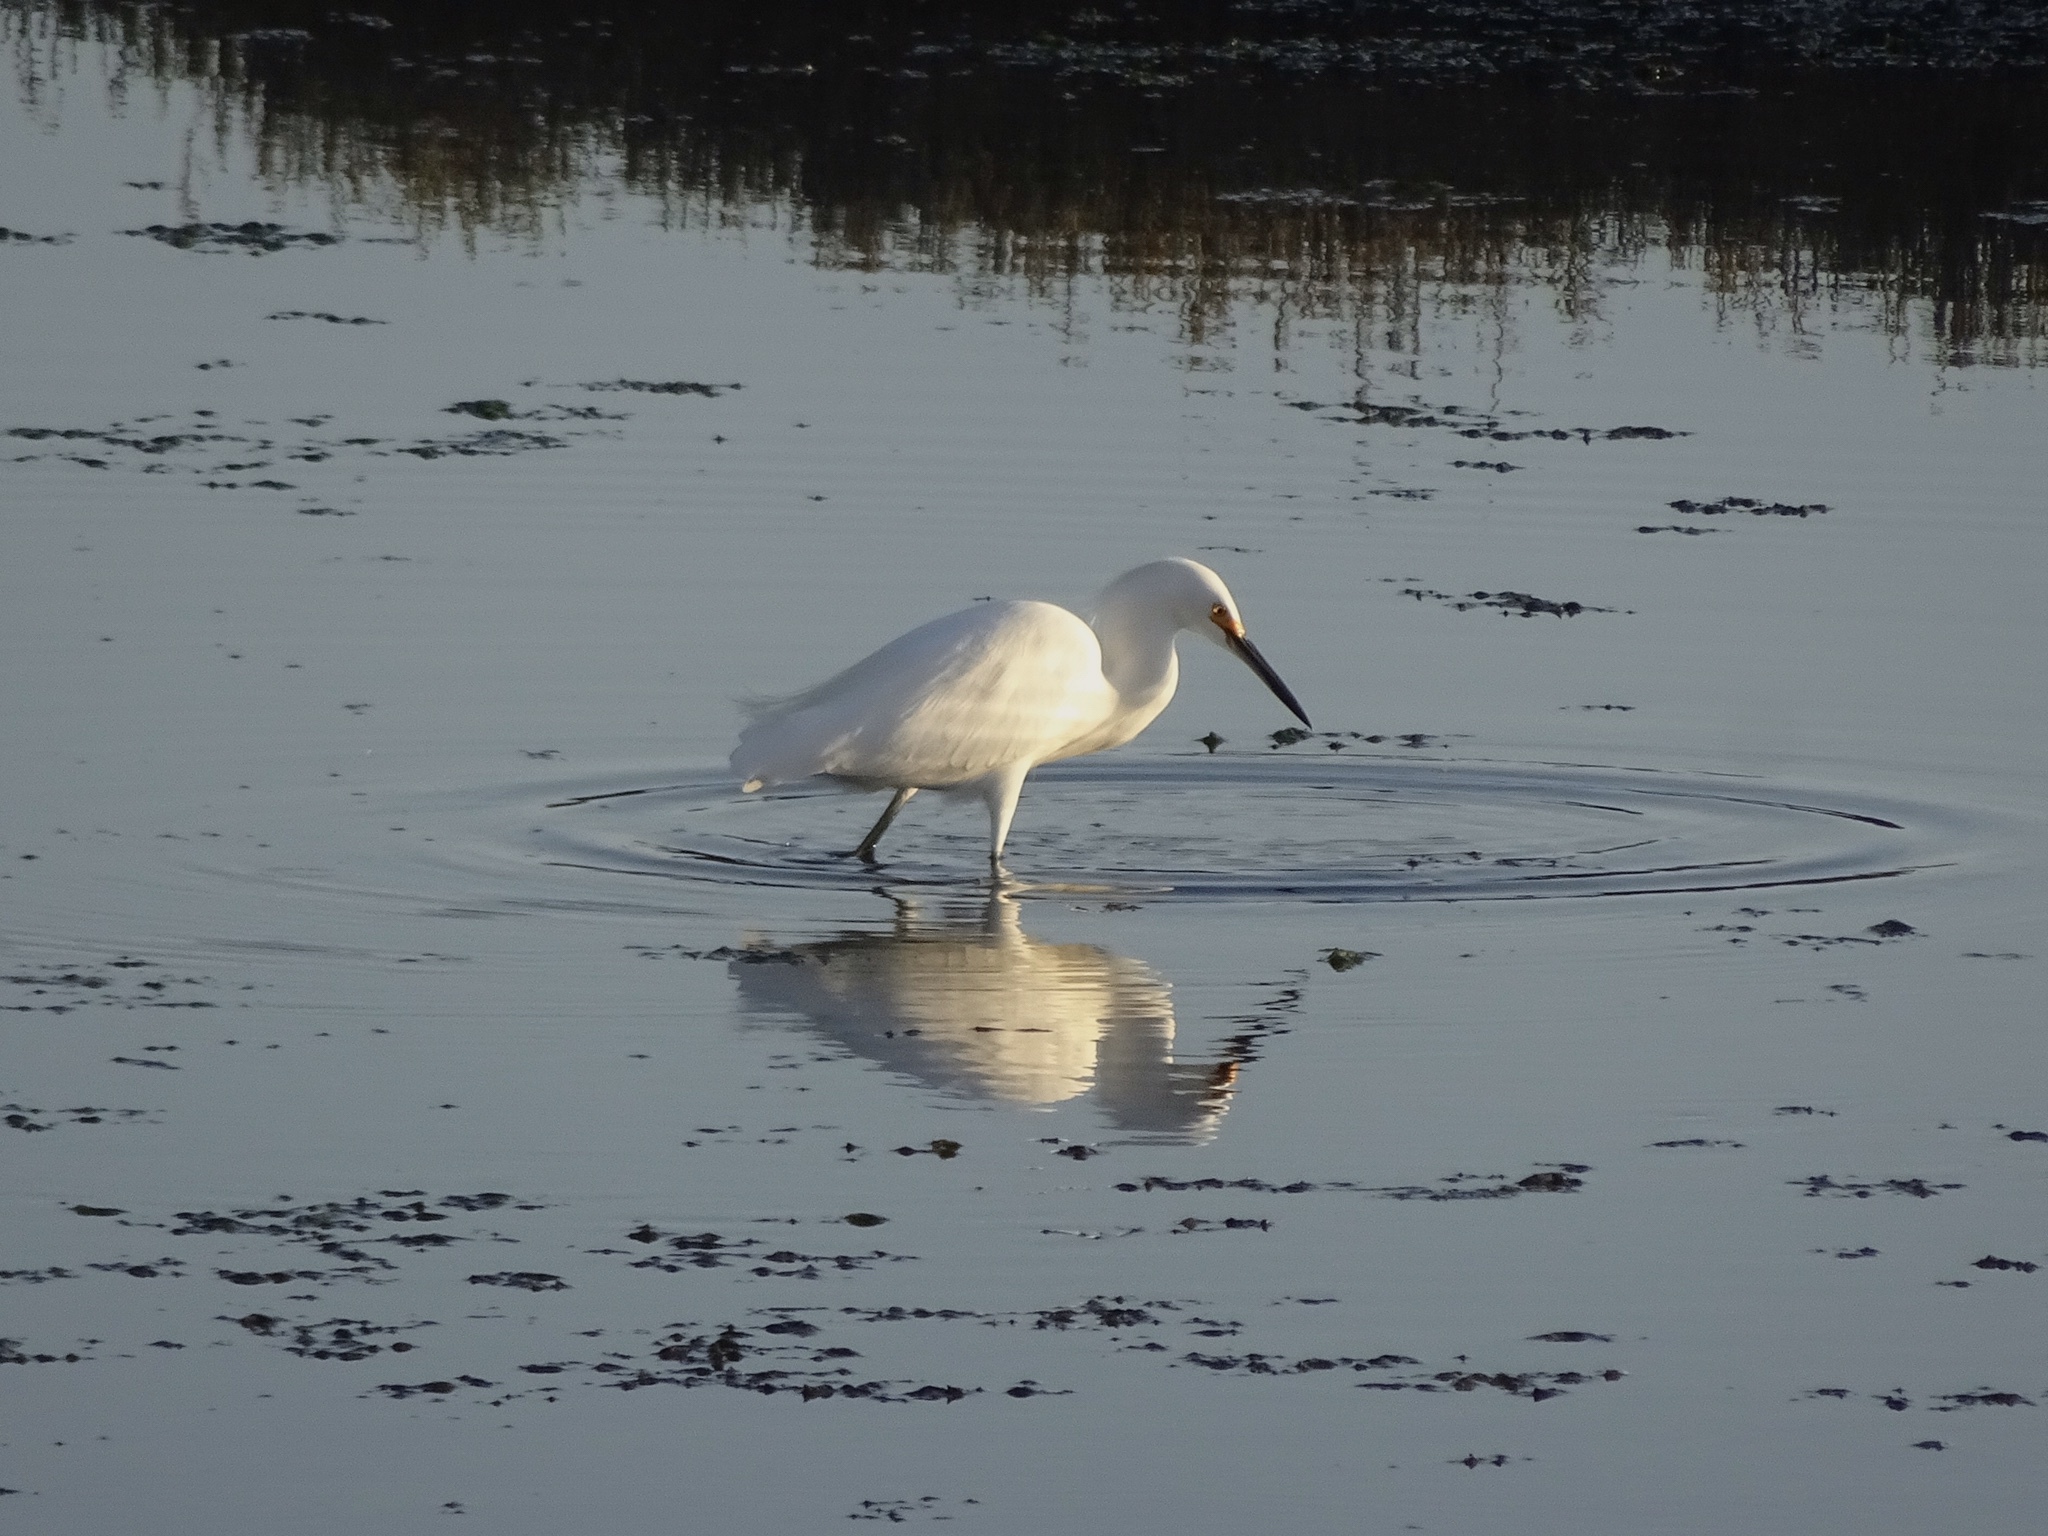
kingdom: Animalia
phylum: Chordata
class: Aves
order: Pelecaniformes
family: Ardeidae
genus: Egretta
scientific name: Egretta thula
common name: Snowy egret
